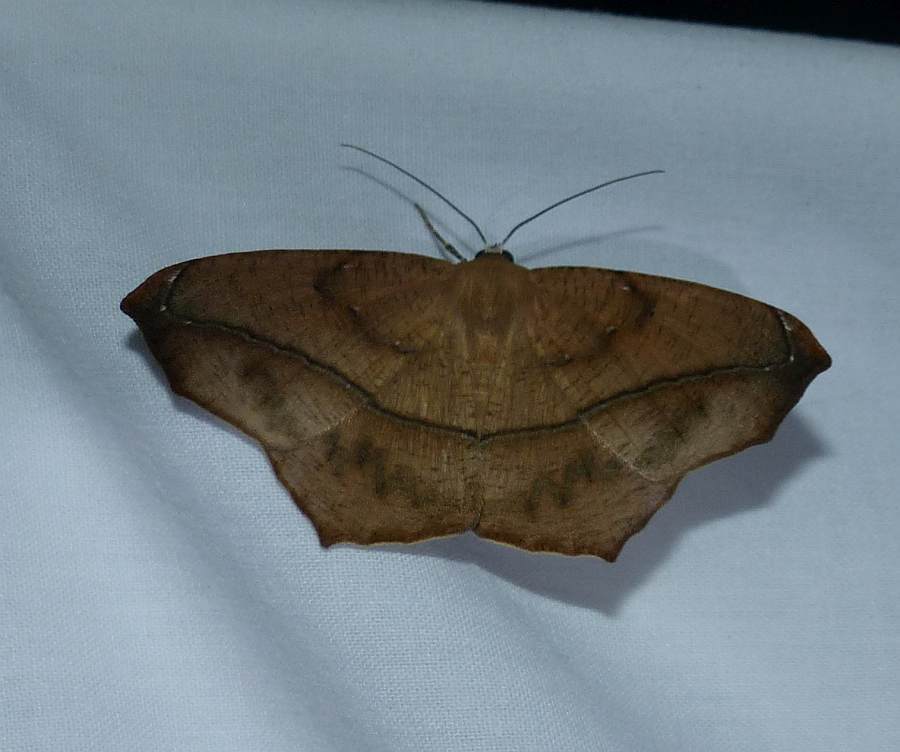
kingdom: Animalia
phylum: Arthropoda
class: Insecta
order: Lepidoptera
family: Geometridae
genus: Prochoerodes
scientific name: Prochoerodes lineola
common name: Large maple spanworm
